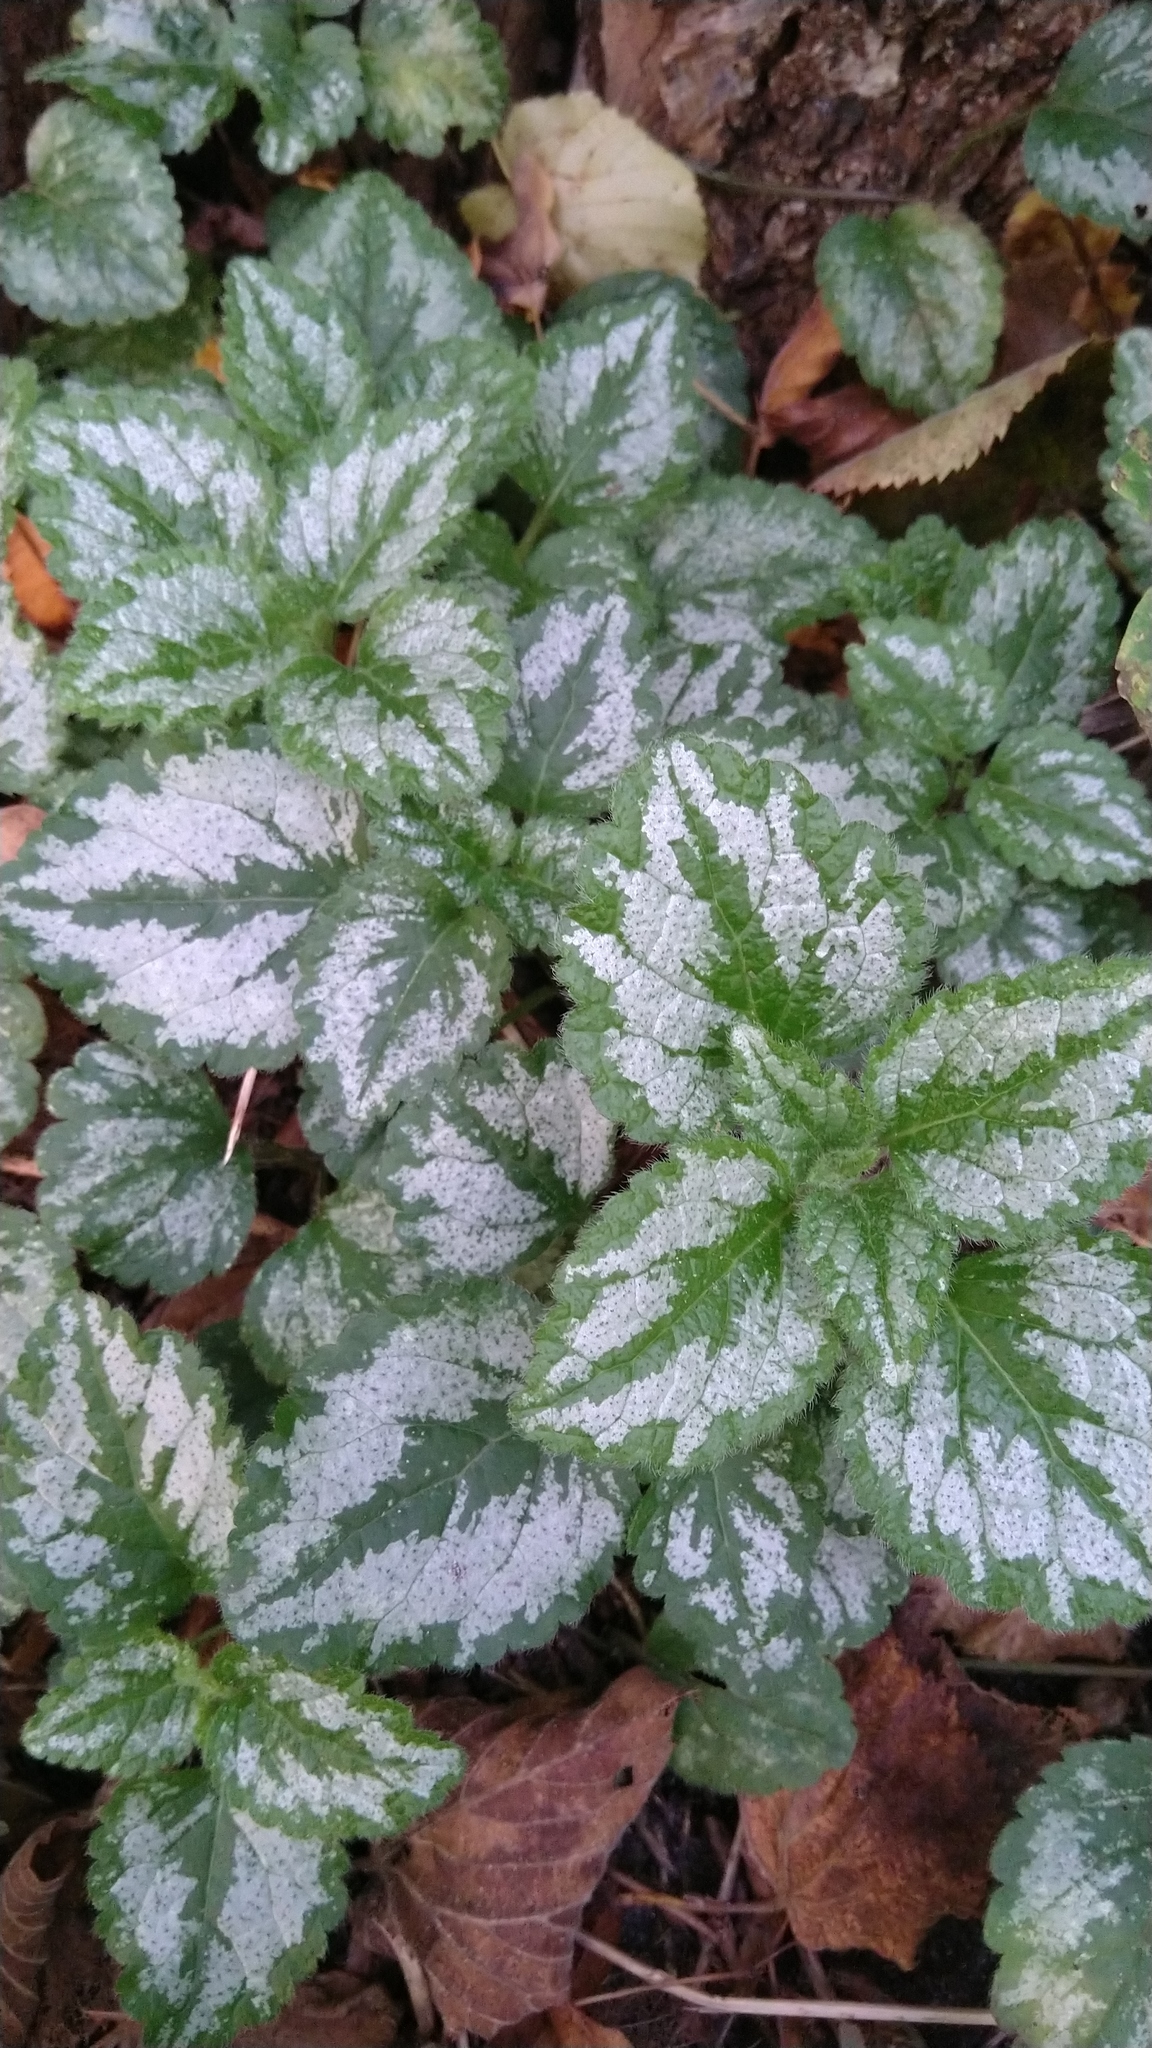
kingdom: Plantae
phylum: Tracheophyta
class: Magnoliopsida
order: Lamiales
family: Lamiaceae
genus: Lamium
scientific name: Lamium galeobdolon
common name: Yellow archangel
